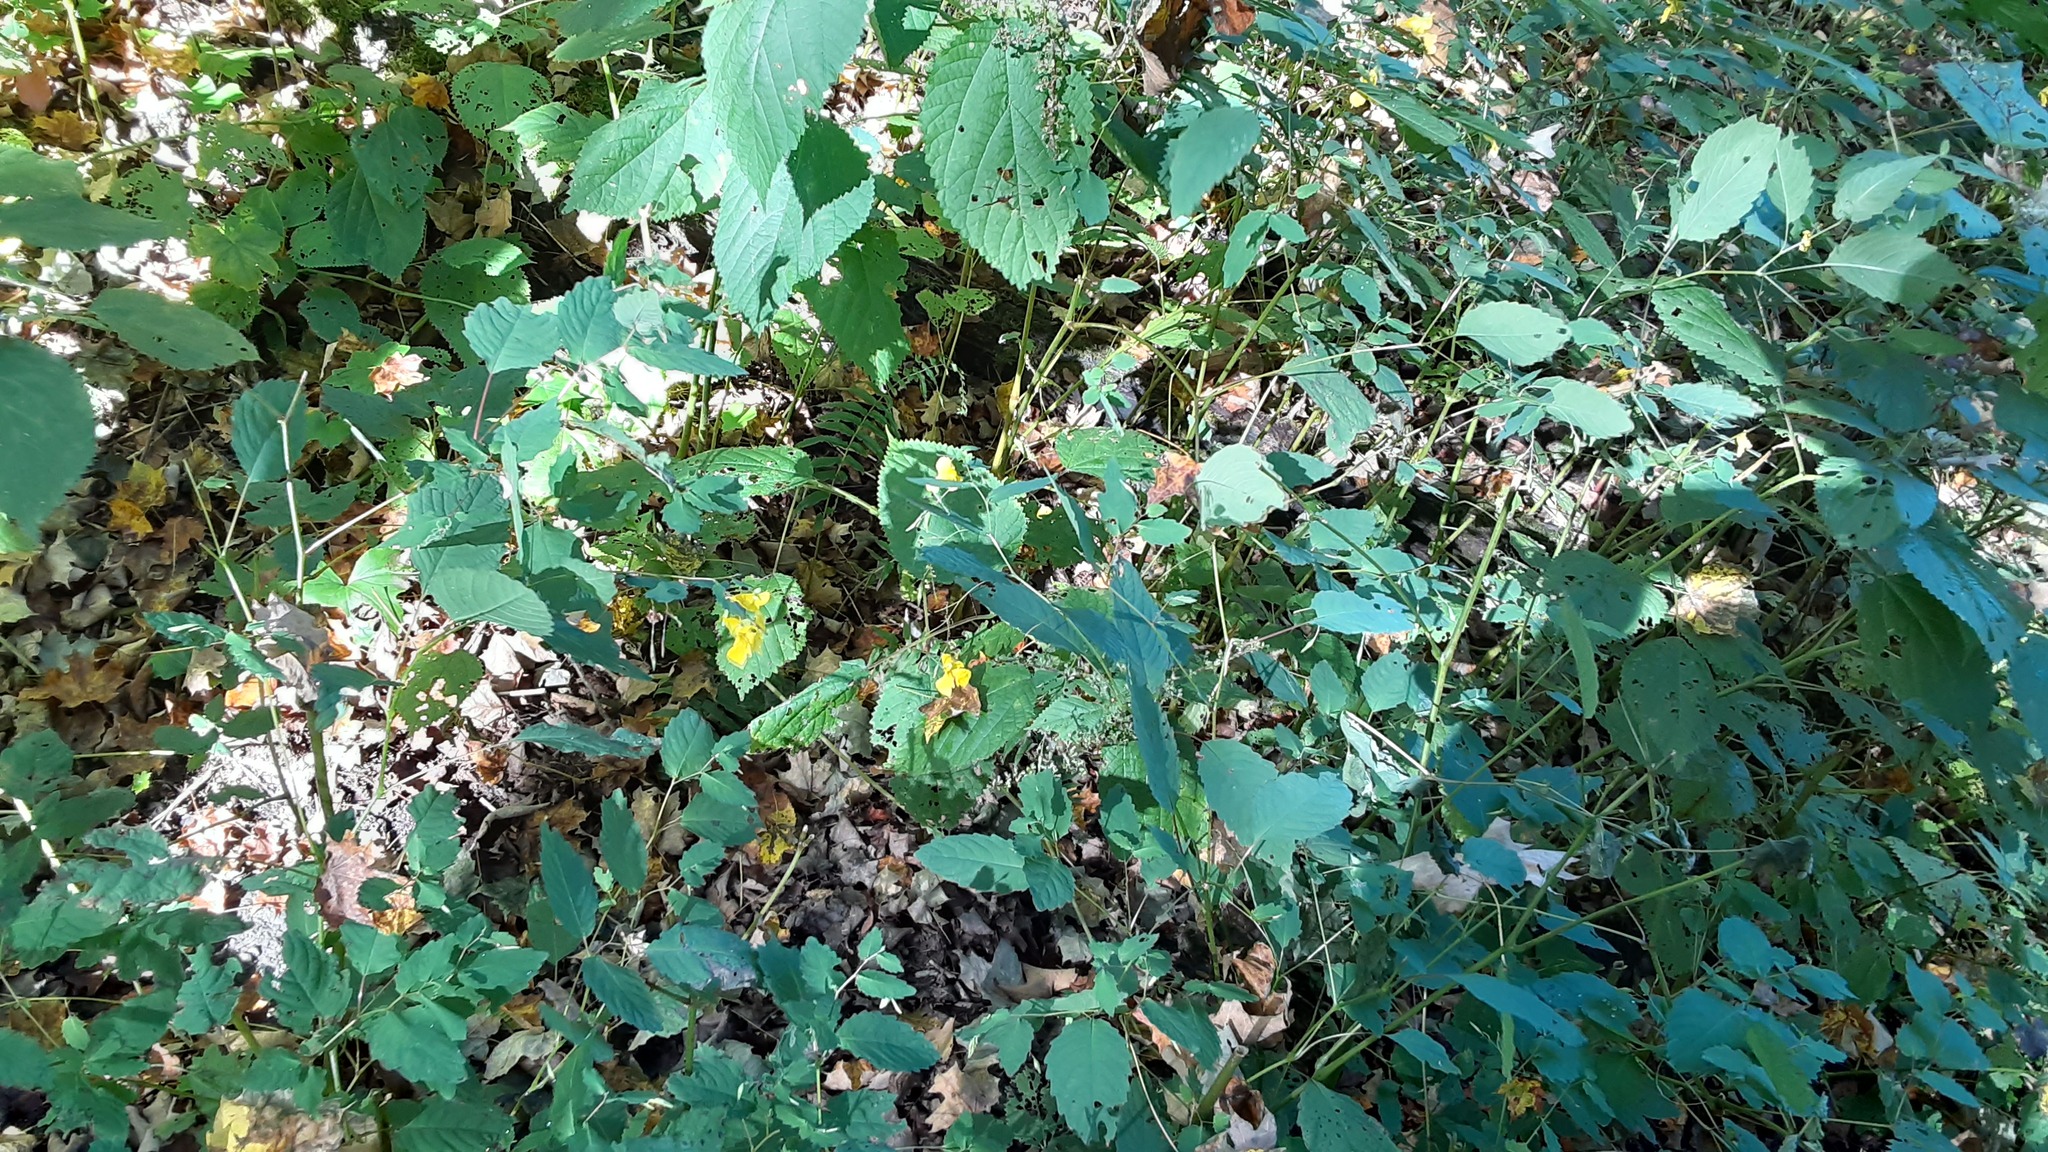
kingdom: Plantae
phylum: Tracheophyta
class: Magnoliopsida
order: Ericales
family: Balsaminaceae
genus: Impatiens
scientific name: Impatiens pallida
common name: Pale snapweed
